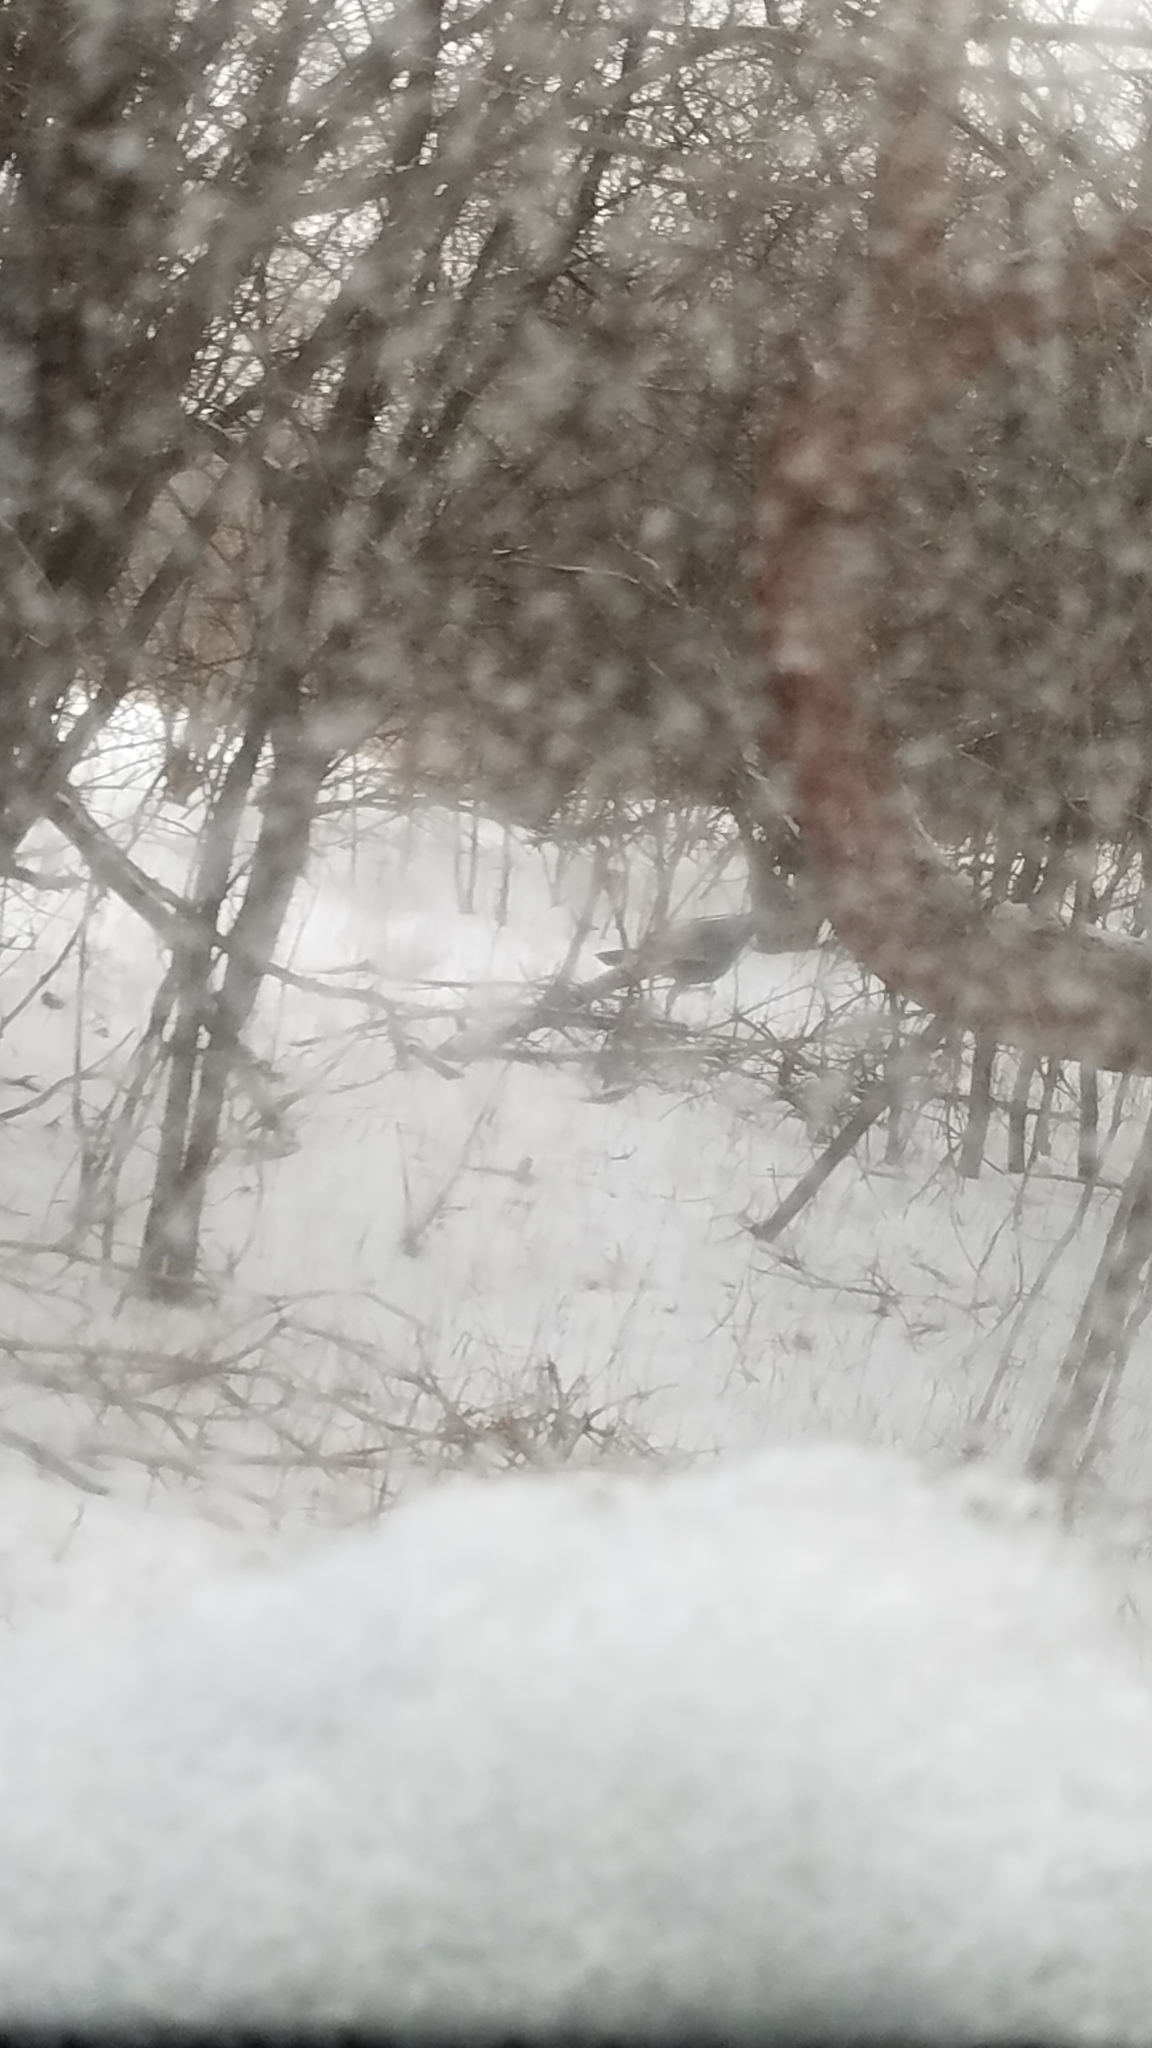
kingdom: Animalia
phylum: Chordata
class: Aves
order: Galliformes
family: Phasianidae
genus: Meleagris
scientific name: Meleagris gallopavo
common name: Wild turkey
